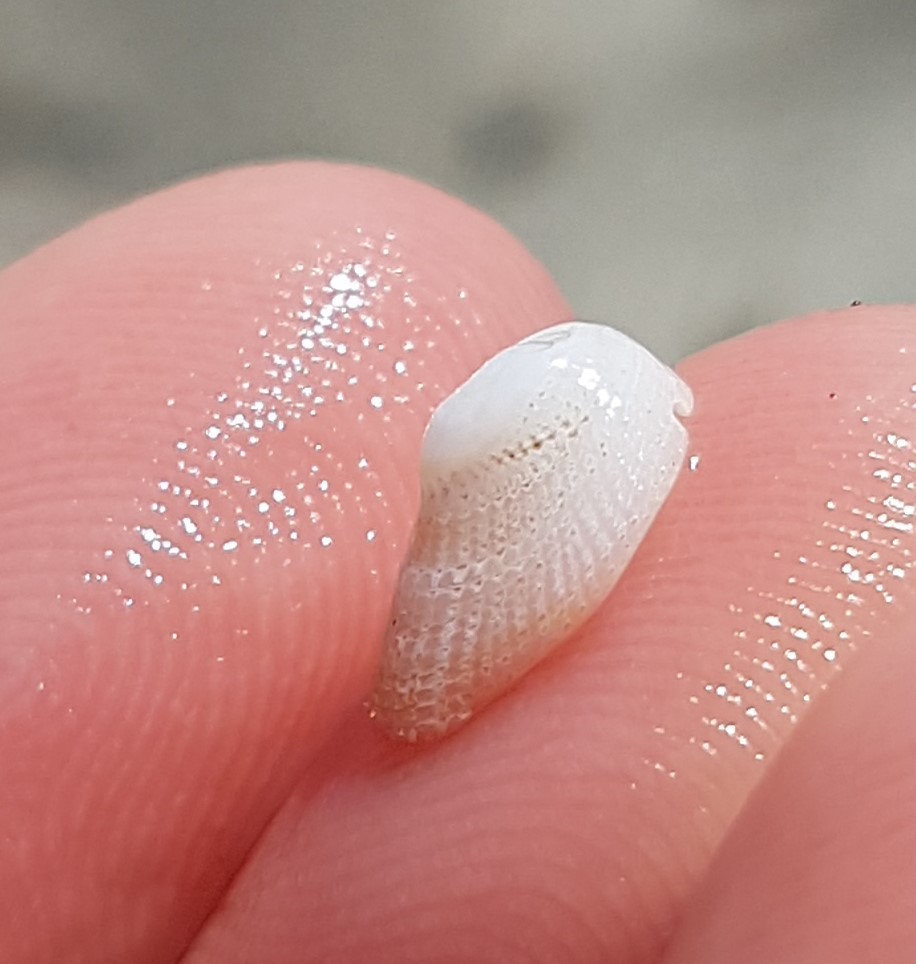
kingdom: Animalia
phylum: Mollusca
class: Gastropoda
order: Littorinimorpha
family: Hipponicidae
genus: Pilosabia
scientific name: Pilosabia trigona
